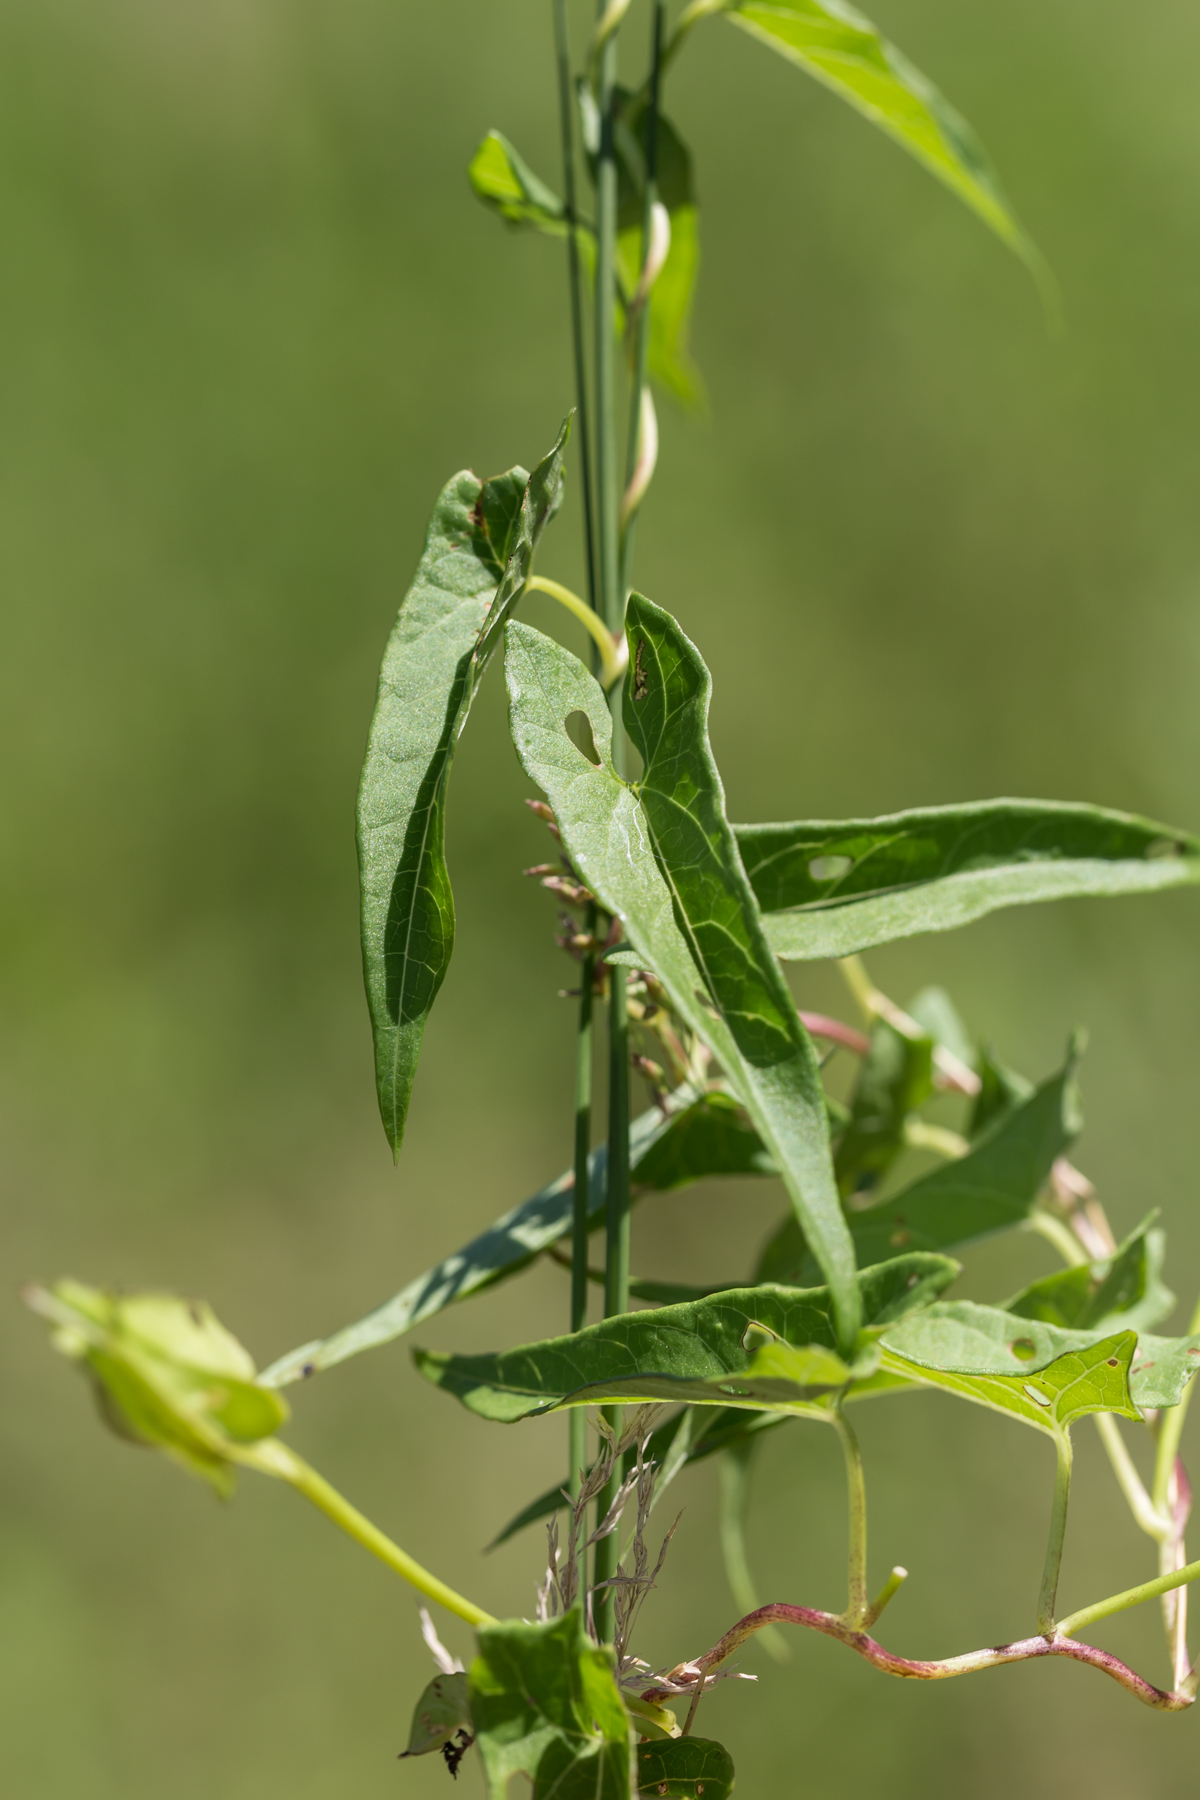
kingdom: Plantae
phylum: Tracheophyta
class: Magnoliopsida
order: Solanales
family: Convolvulaceae
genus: Calystegia
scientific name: Calystegia sepium
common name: Hedge bindweed
